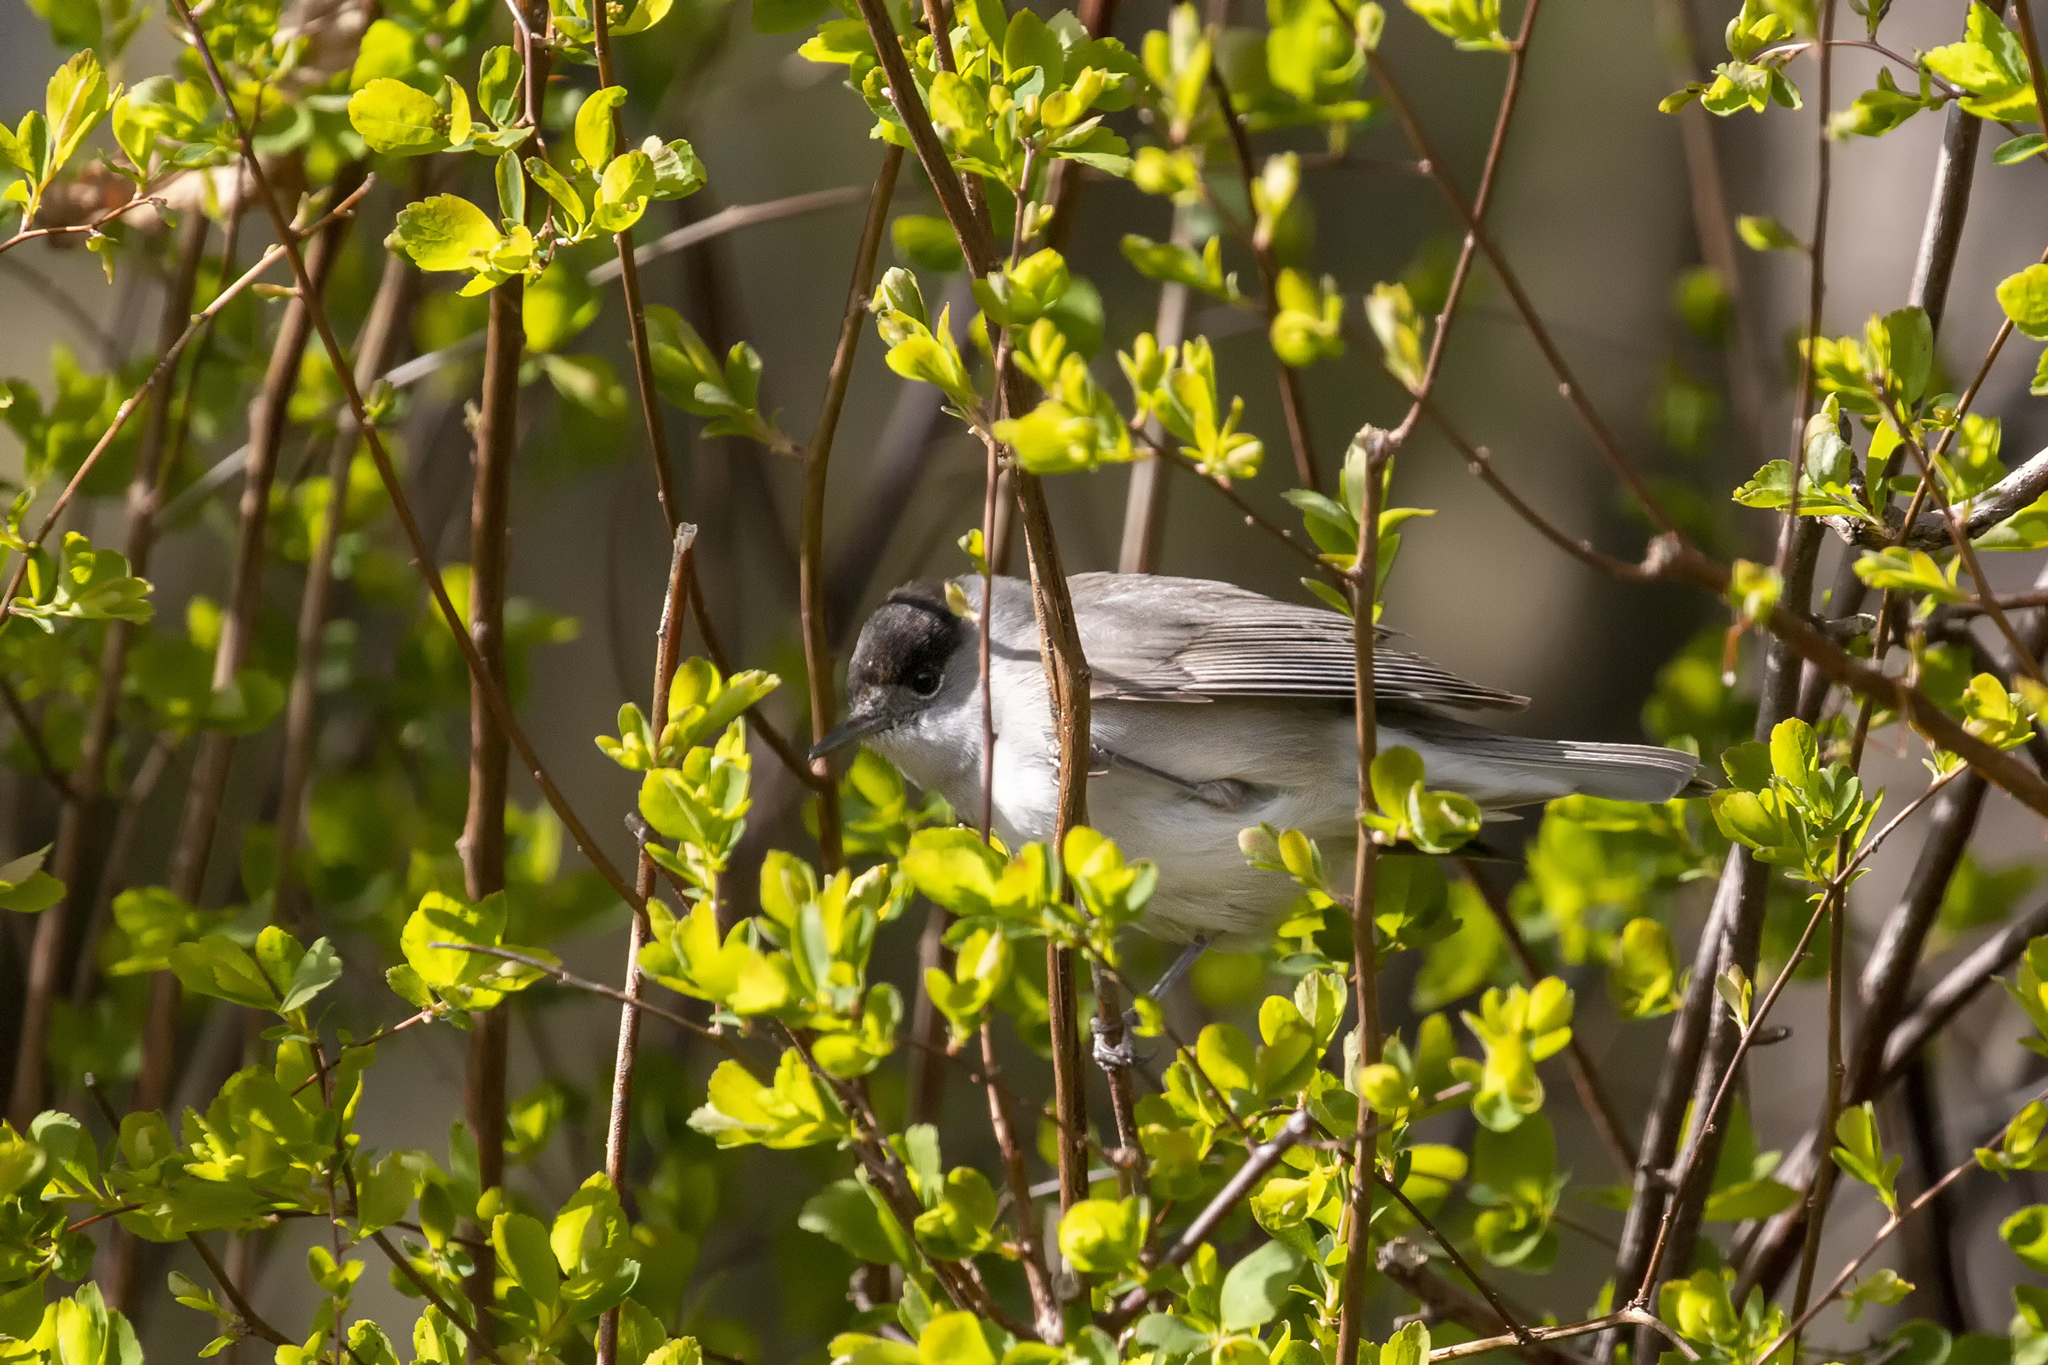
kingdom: Animalia
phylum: Chordata
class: Aves
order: Passeriformes
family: Sylviidae
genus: Sylvia
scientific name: Sylvia atricapilla
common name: Eurasian blackcap
